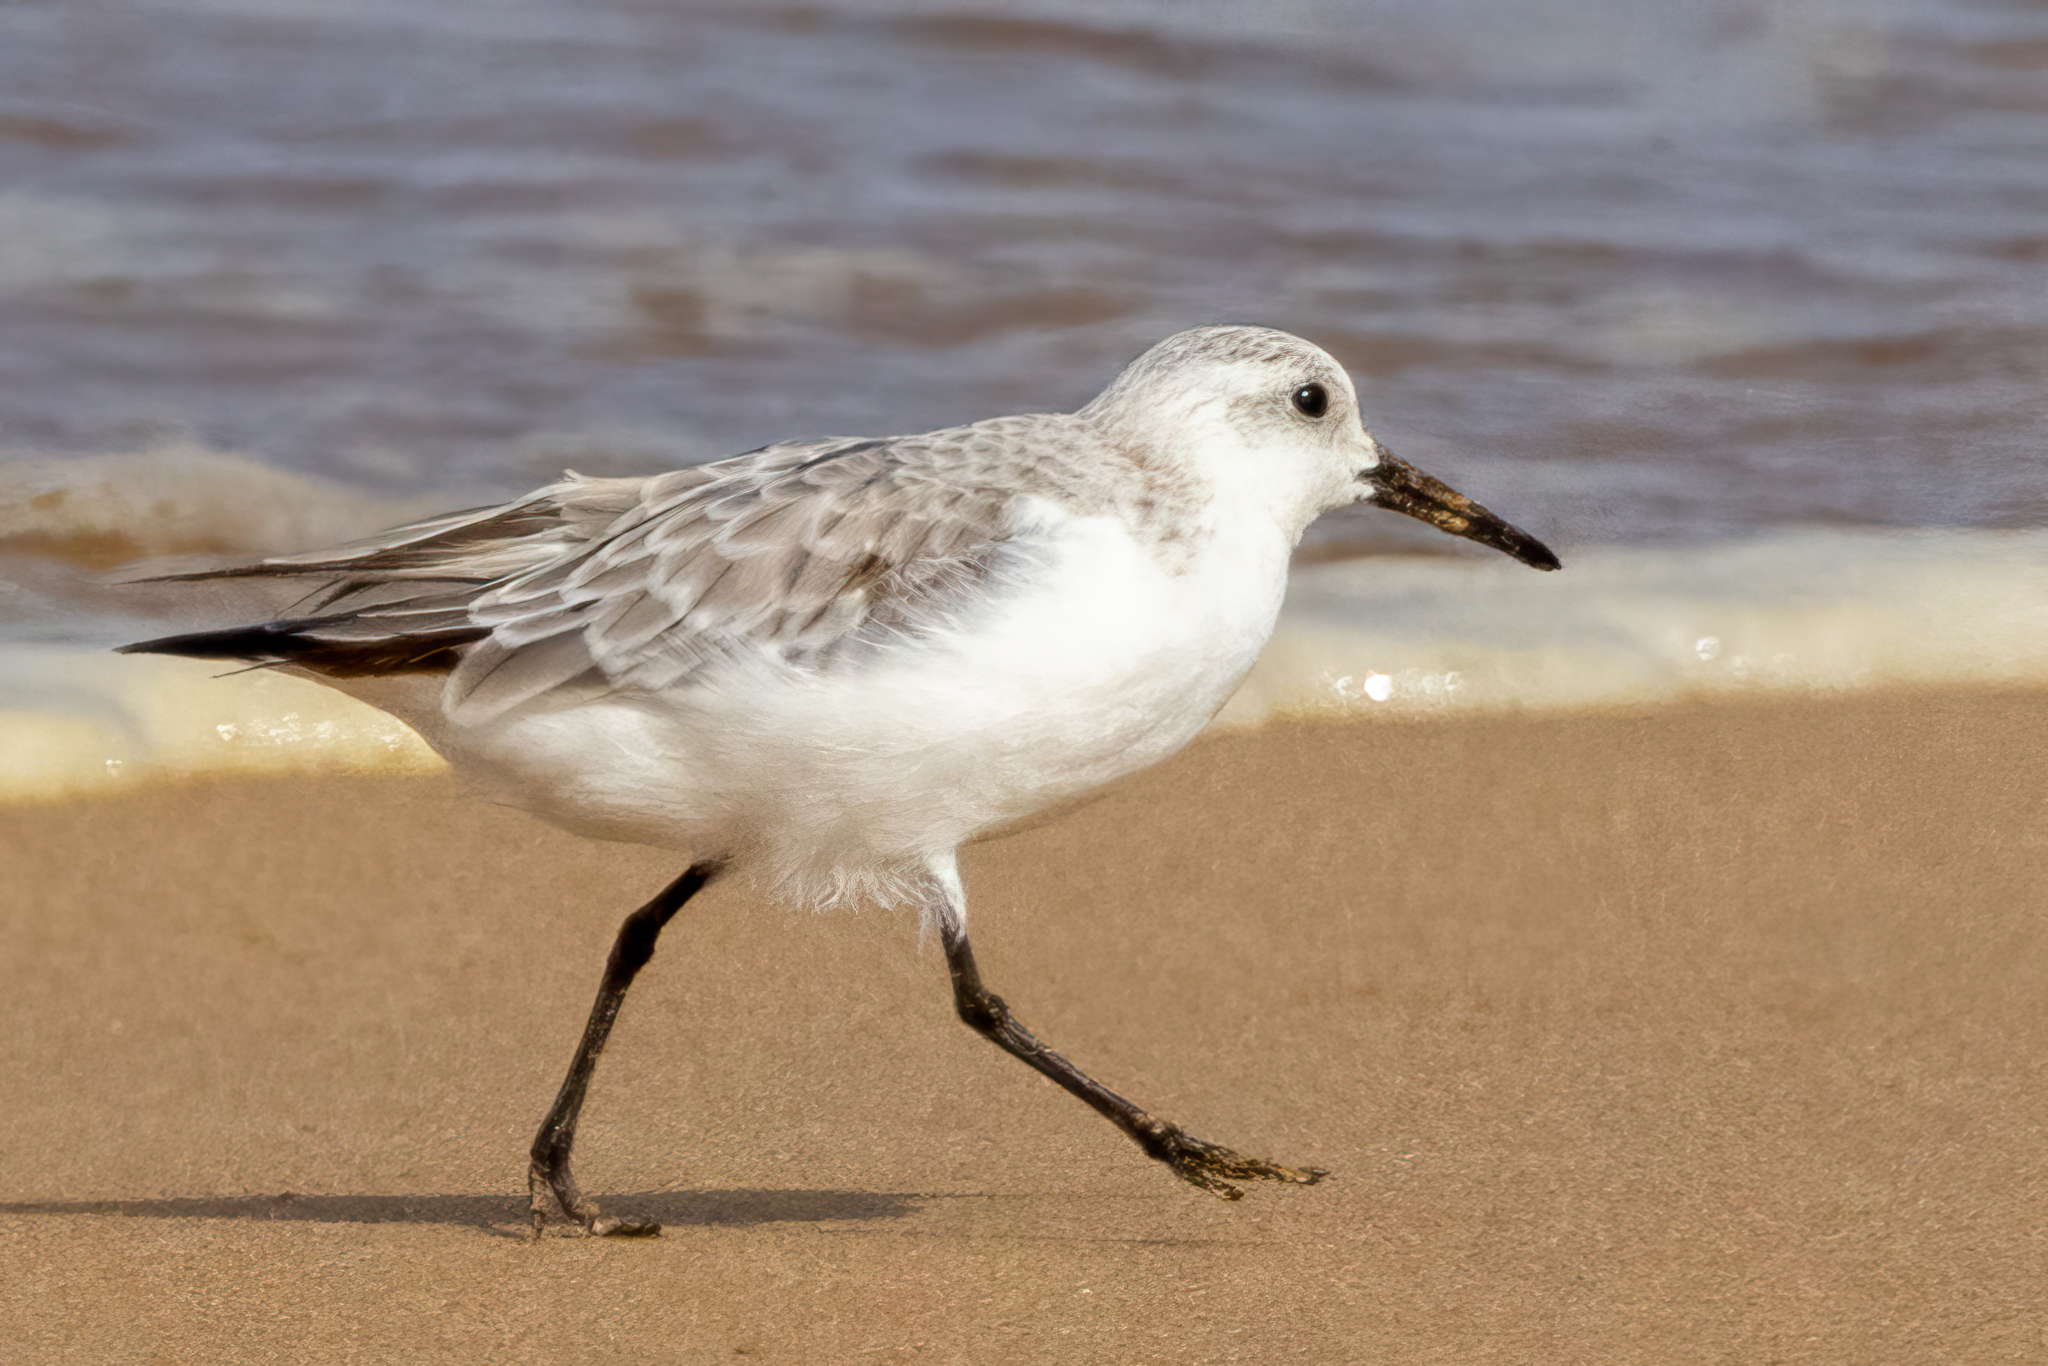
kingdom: Animalia
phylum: Chordata
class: Aves
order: Charadriiformes
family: Scolopacidae
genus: Calidris
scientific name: Calidris alba
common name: Sanderling
